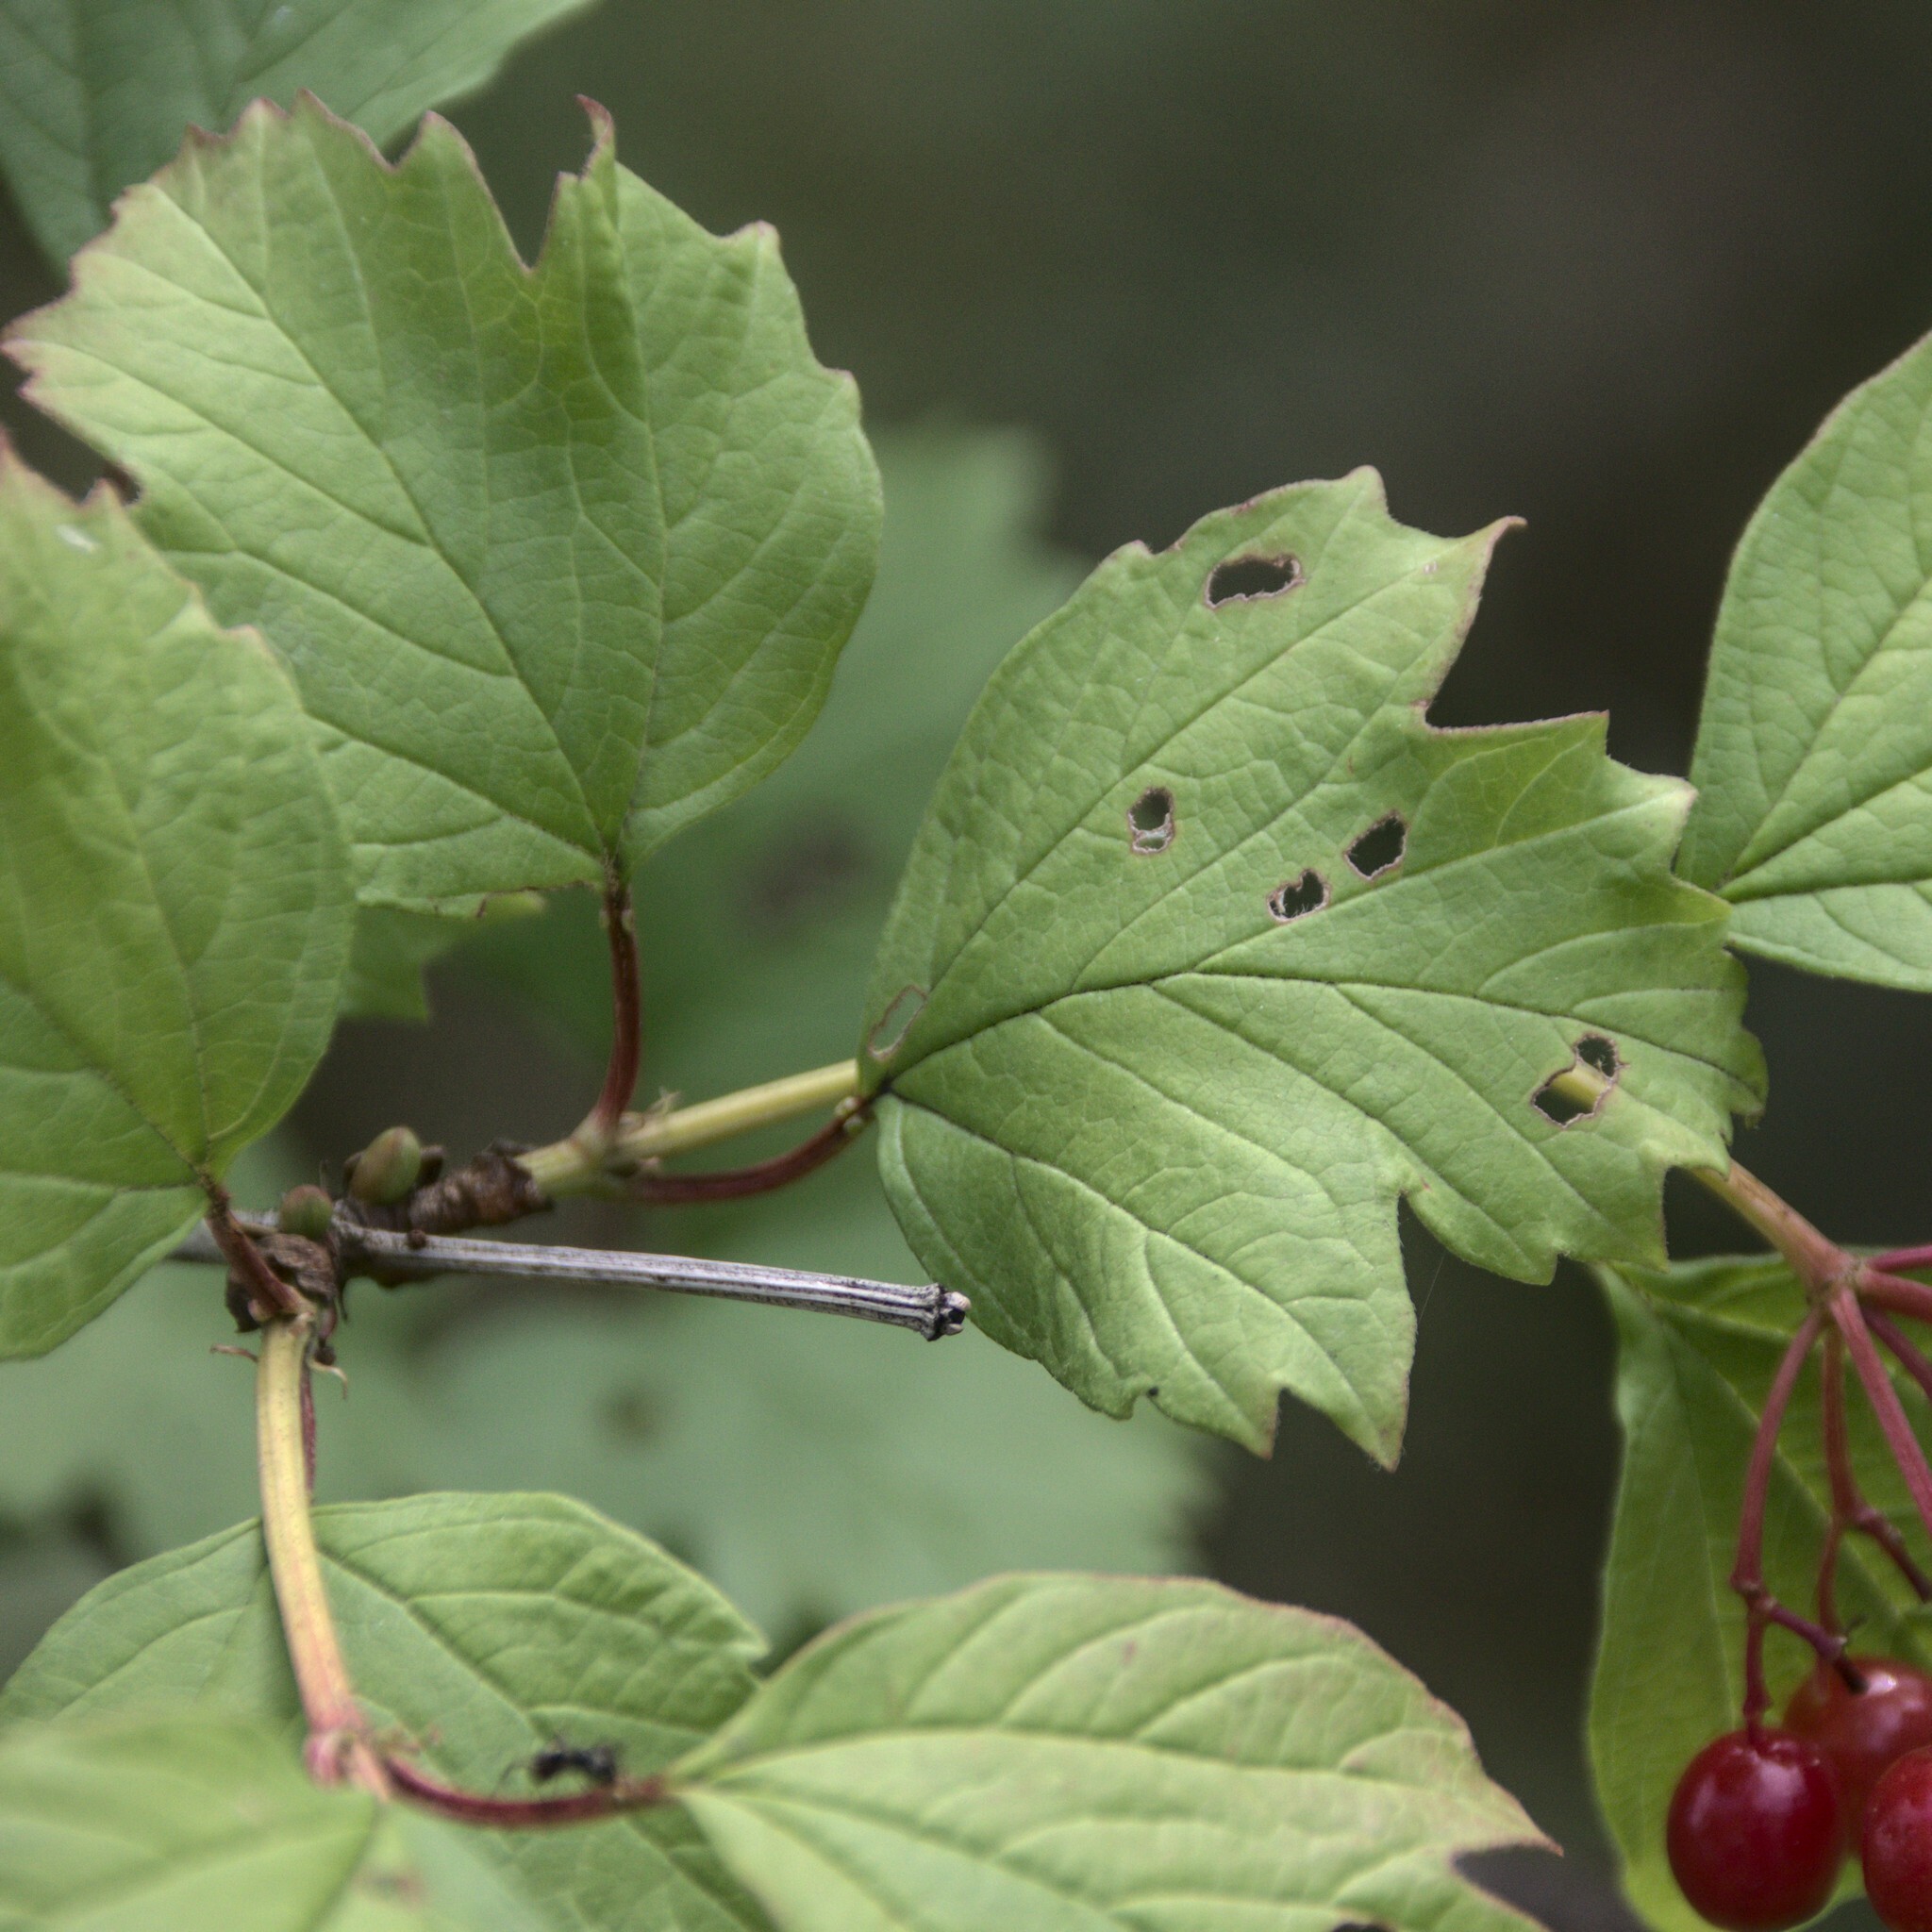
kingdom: Plantae
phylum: Tracheophyta
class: Magnoliopsida
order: Dipsacales
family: Viburnaceae
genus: Viburnum
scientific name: Viburnum opulus
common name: Guelder-rose
